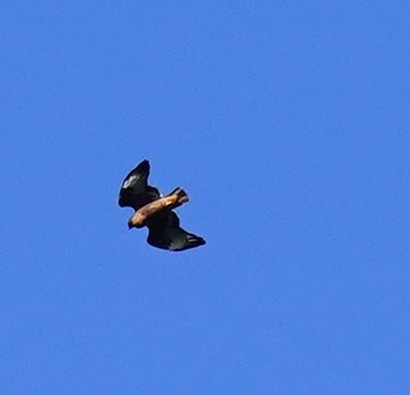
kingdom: Animalia
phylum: Chordata
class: Aves
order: Accipitriformes
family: Accipitridae
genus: Buteo
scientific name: Buteo jamaicensis
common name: Red-tailed hawk
